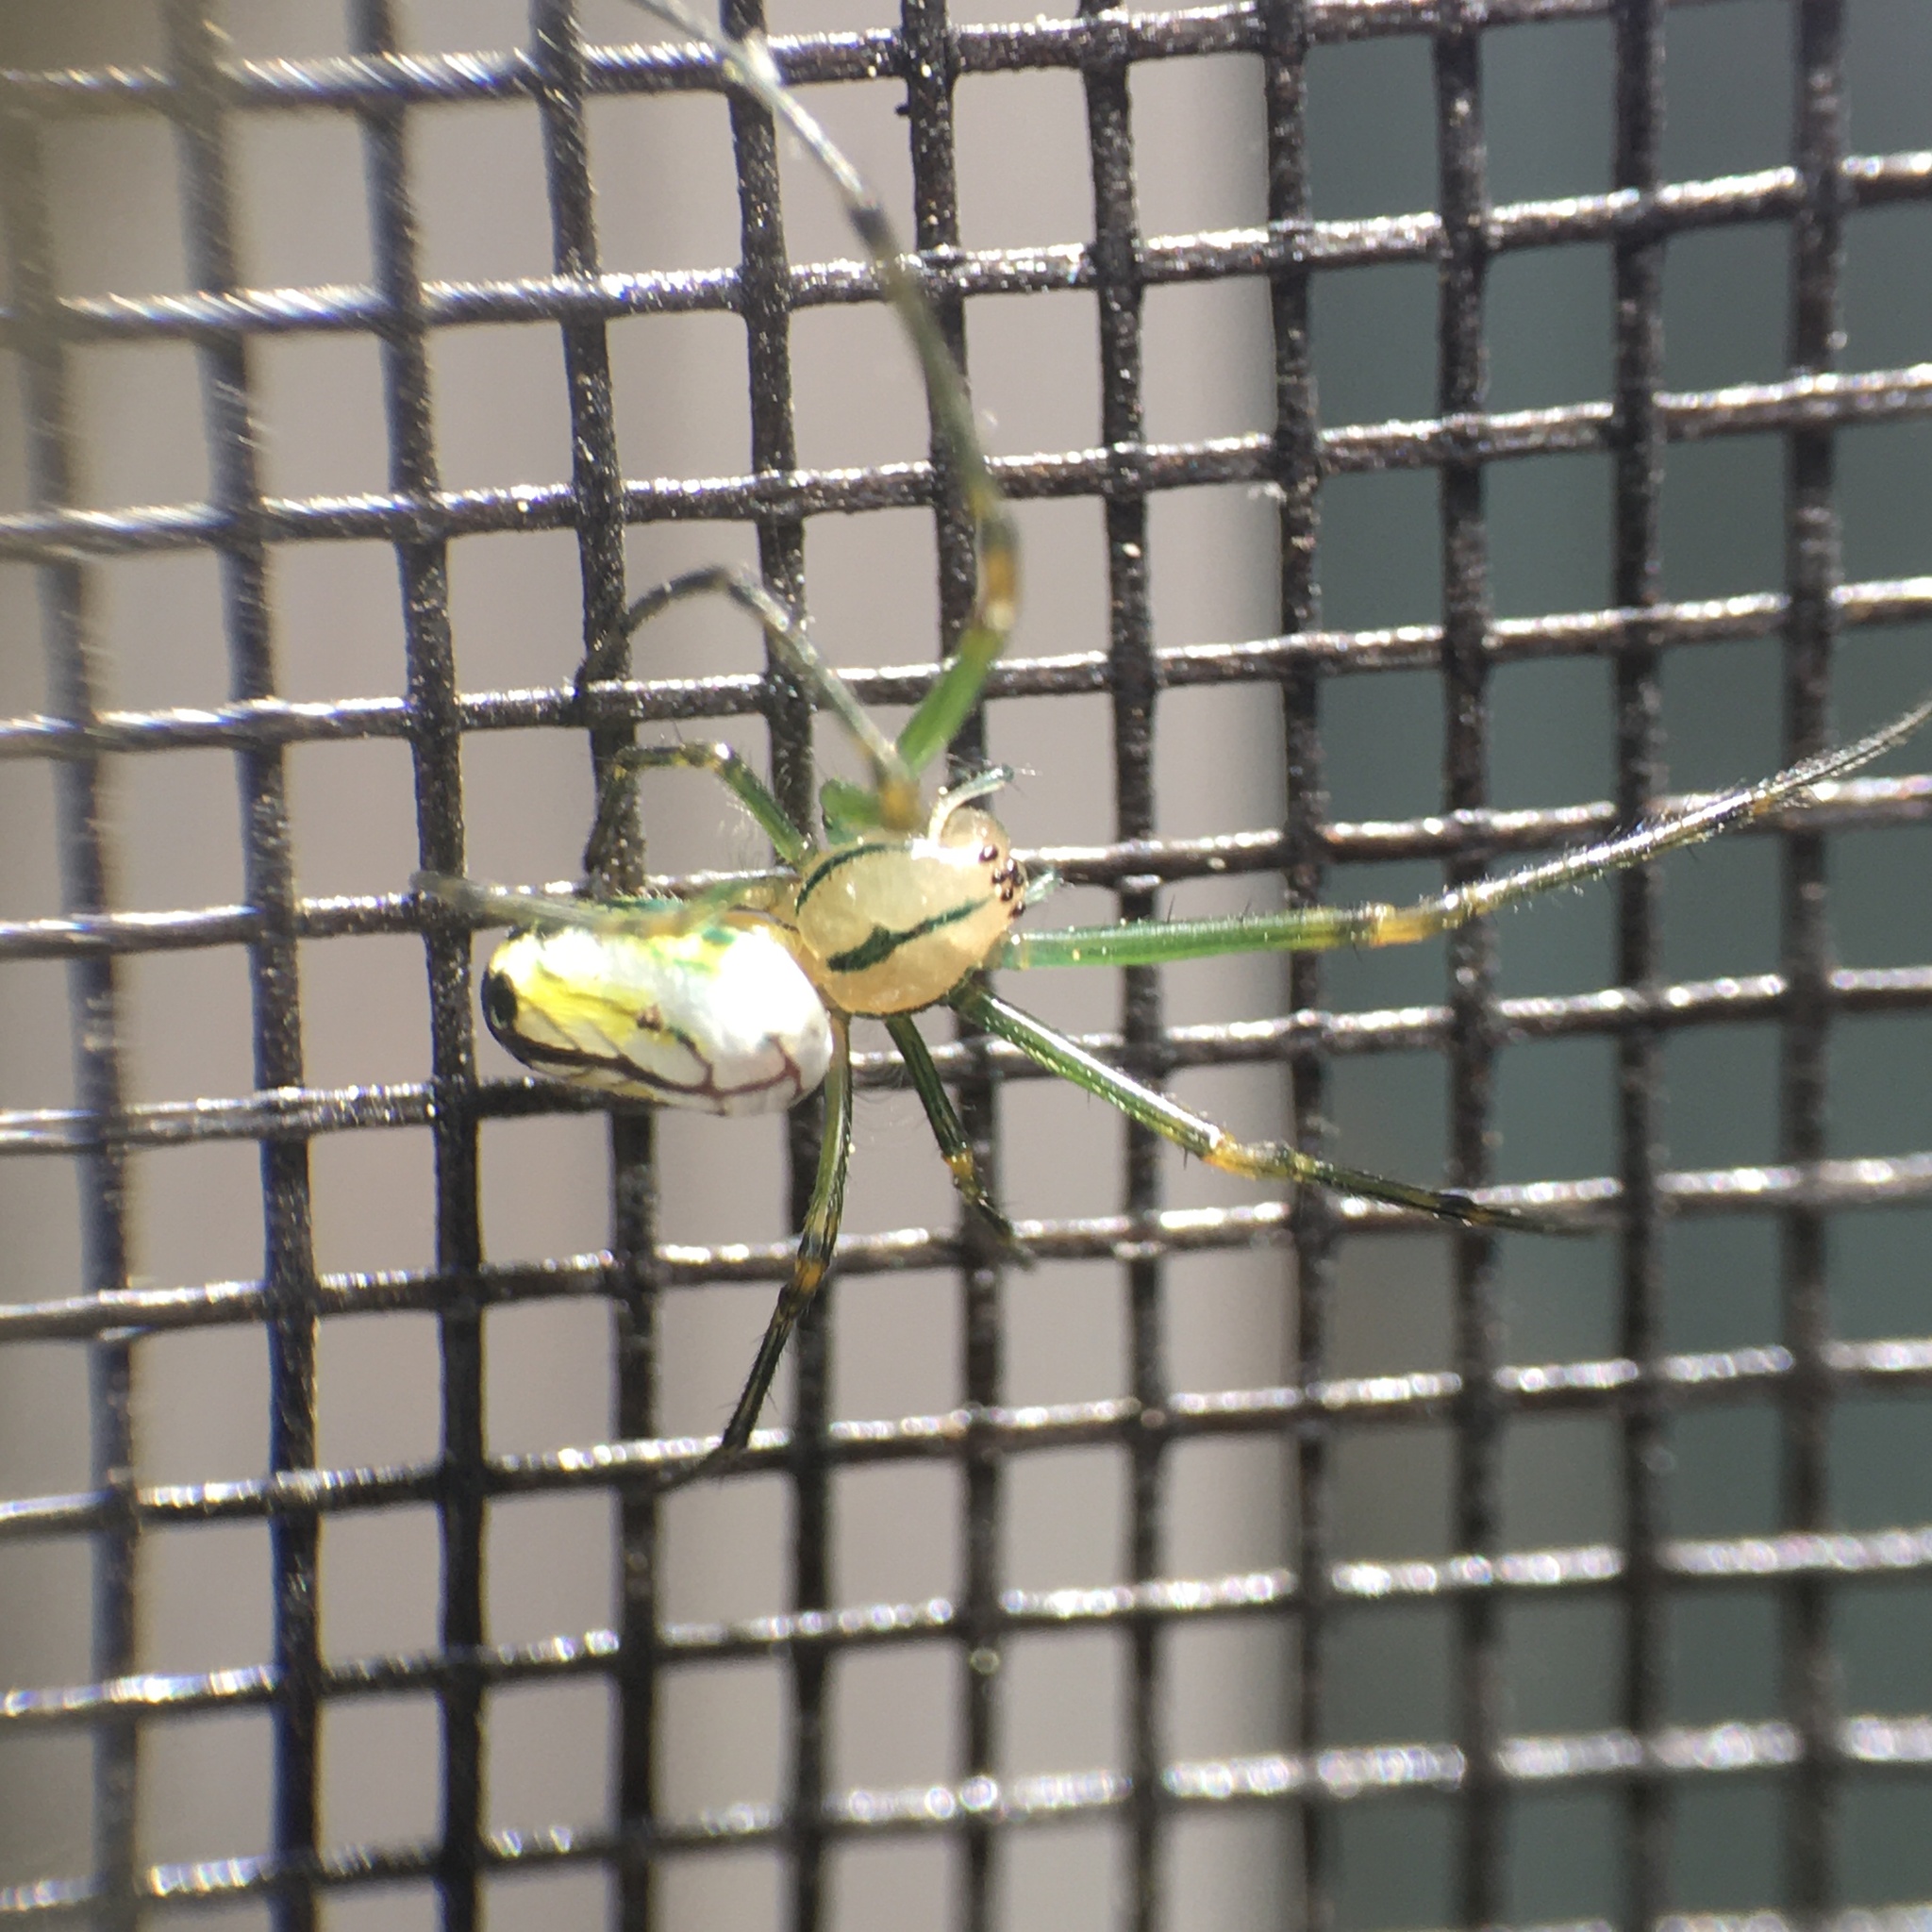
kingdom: Animalia
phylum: Arthropoda
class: Arachnida
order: Araneae
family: Tetragnathidae
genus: Leucauge
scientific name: Leucauge venusta
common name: Longjawed orb weavers
